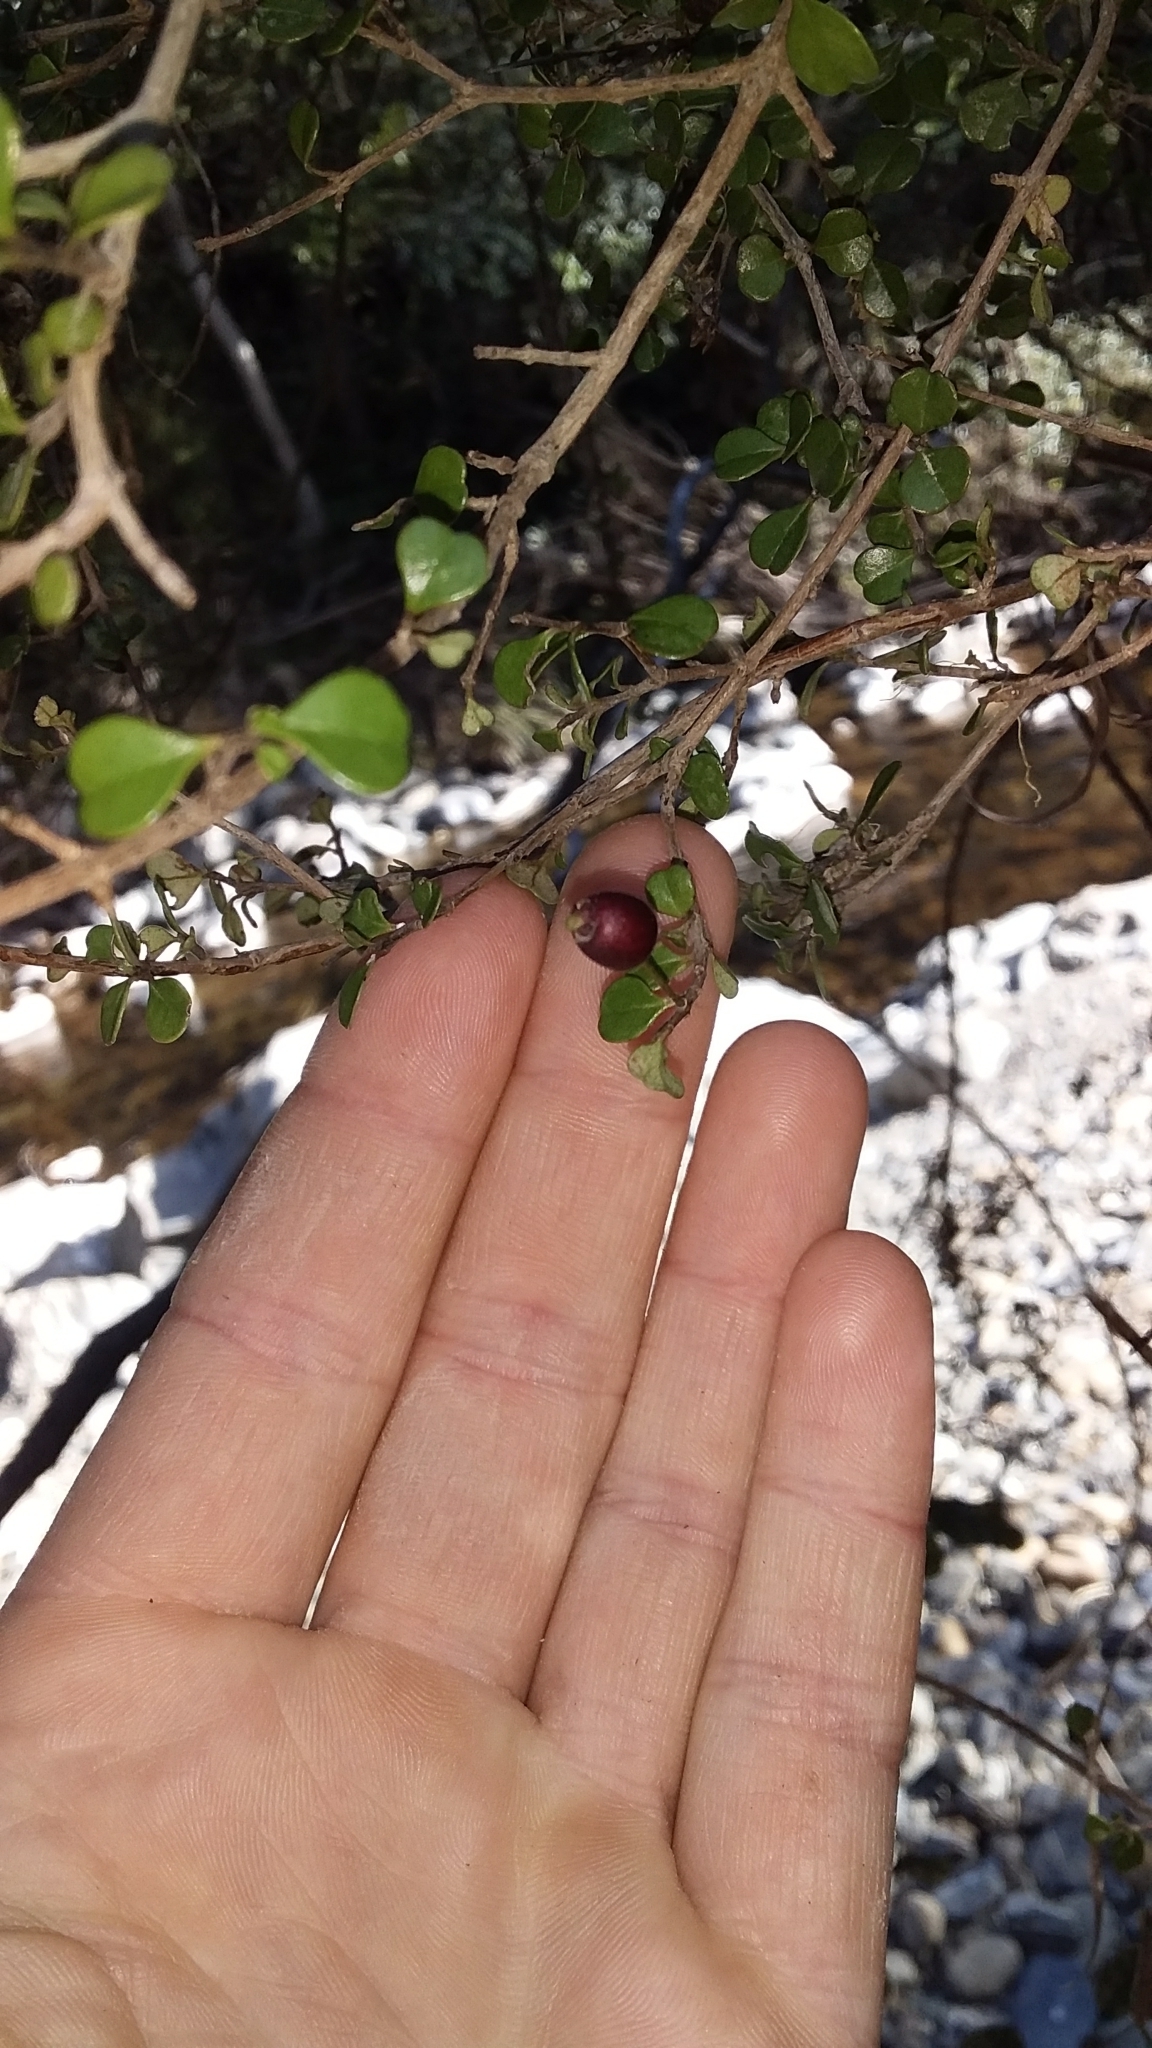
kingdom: Plantae
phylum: Tracheophyta
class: Magnoliopsida
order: Myrtales
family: Myrtaceae
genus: Lophomyrtus
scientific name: Lophomyrtus obcordata
